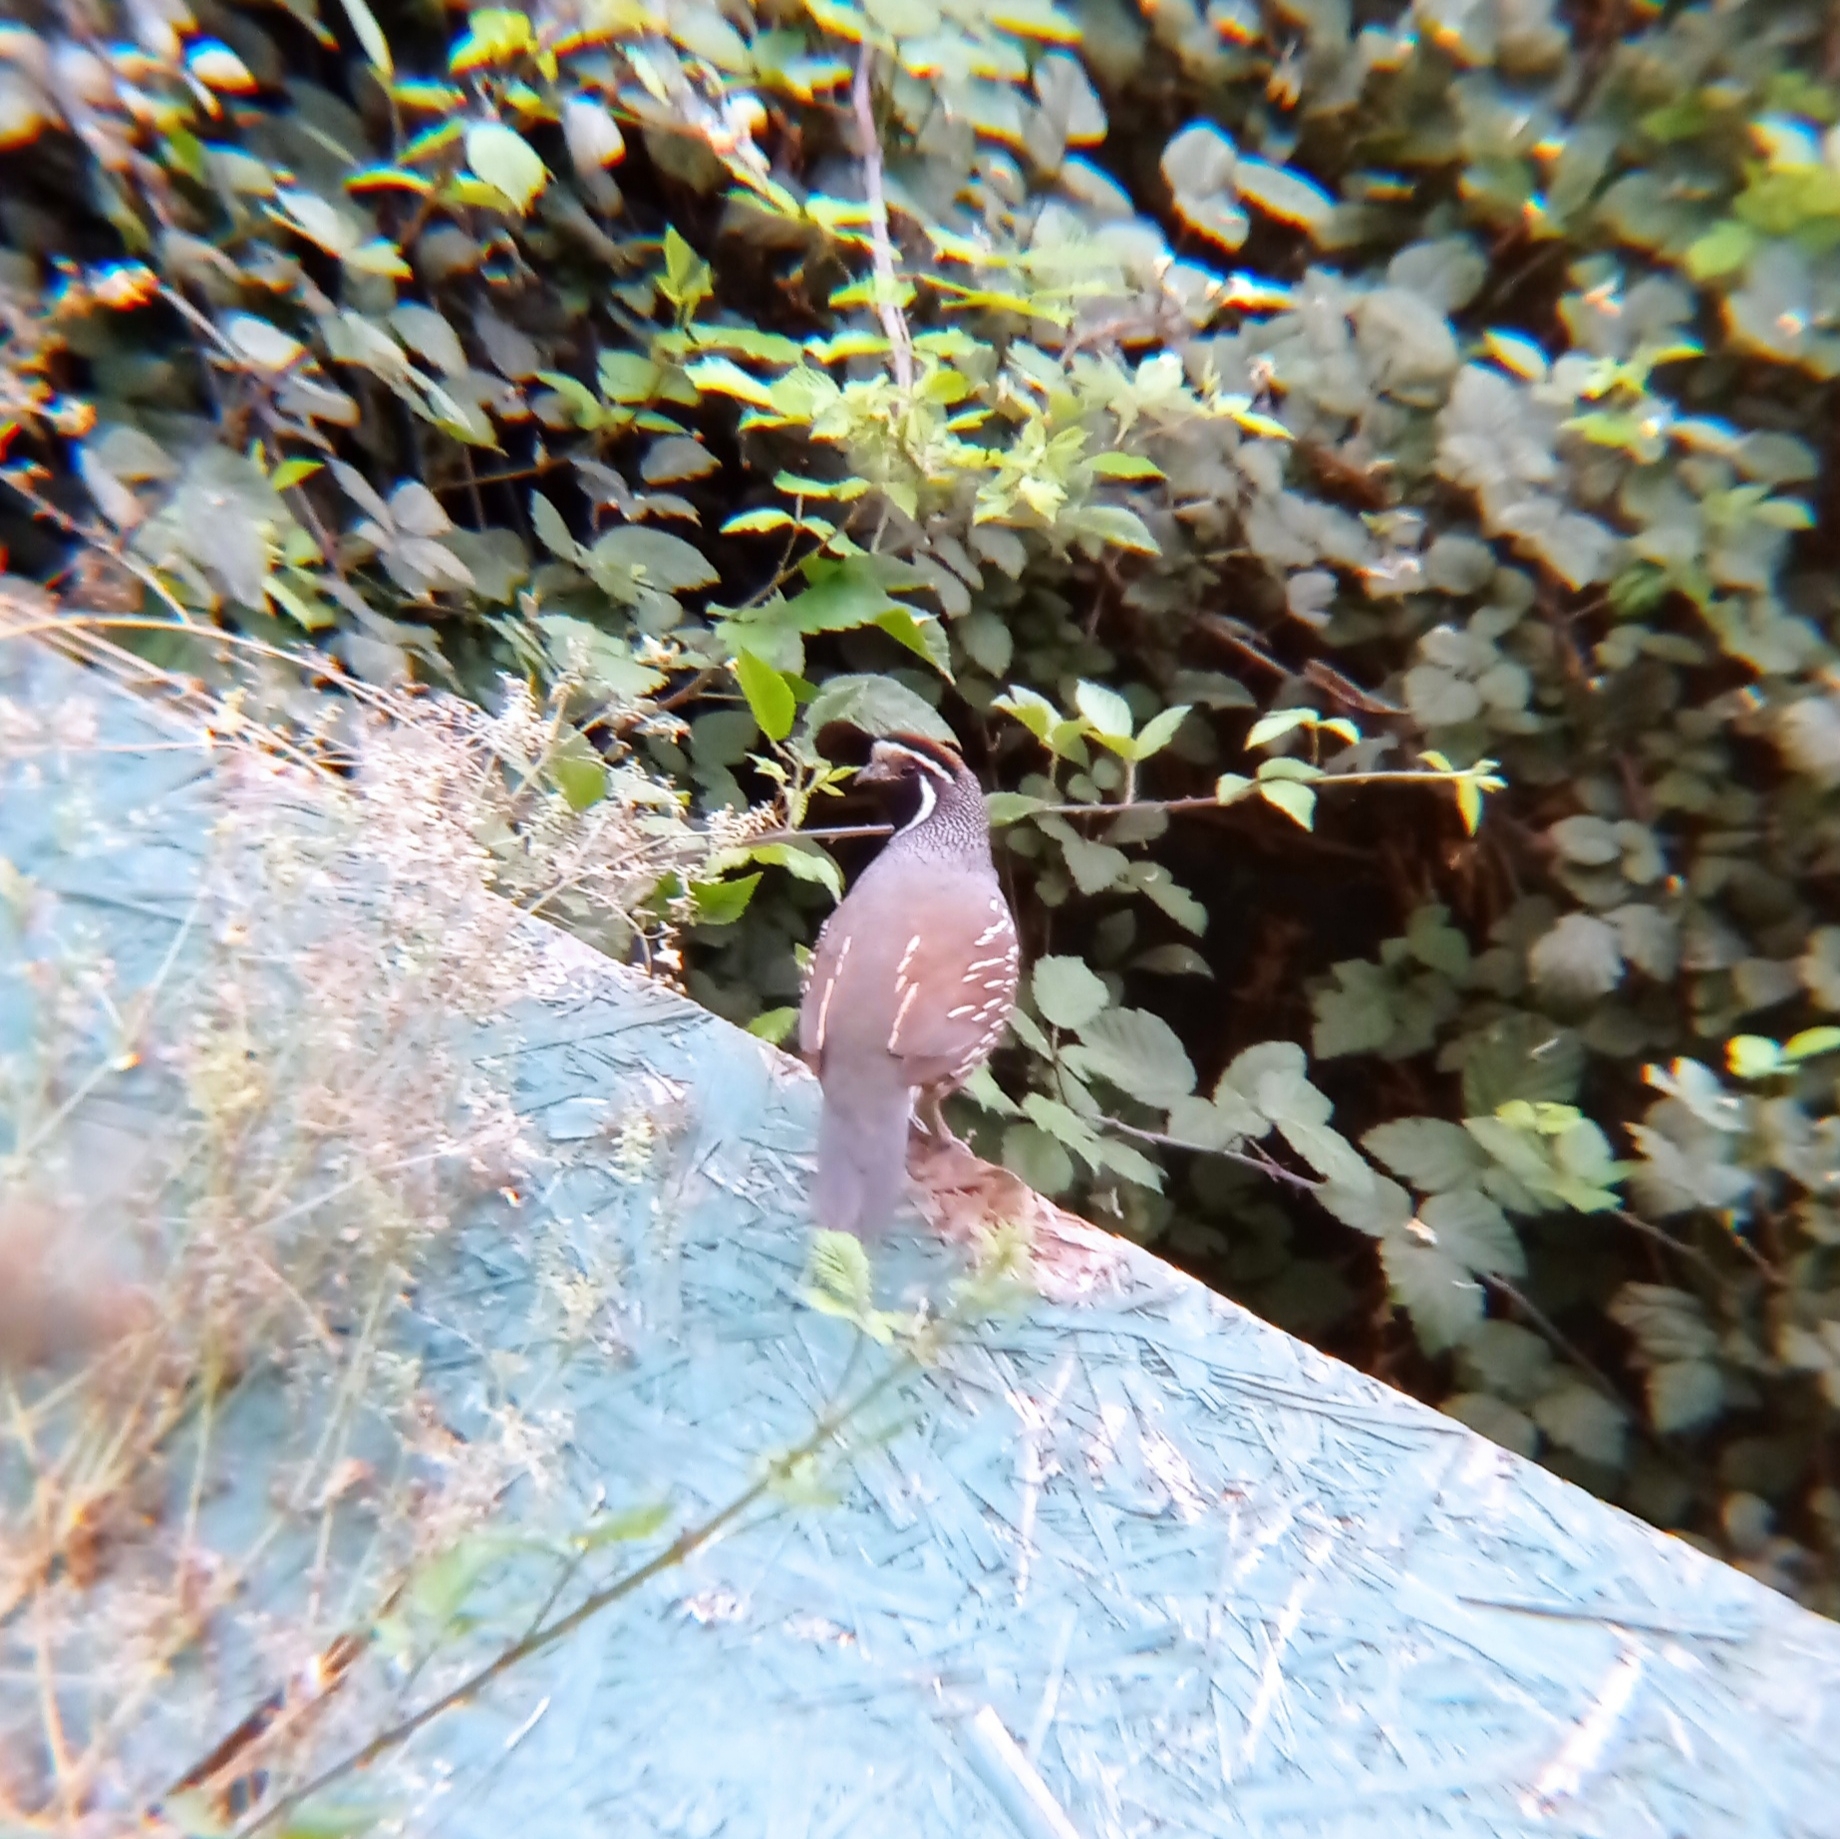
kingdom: Animalia
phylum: Chordata
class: Aves
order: Galliformes
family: Odontophoridae
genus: Callipepla
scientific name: Callipepla californica
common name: California quail
